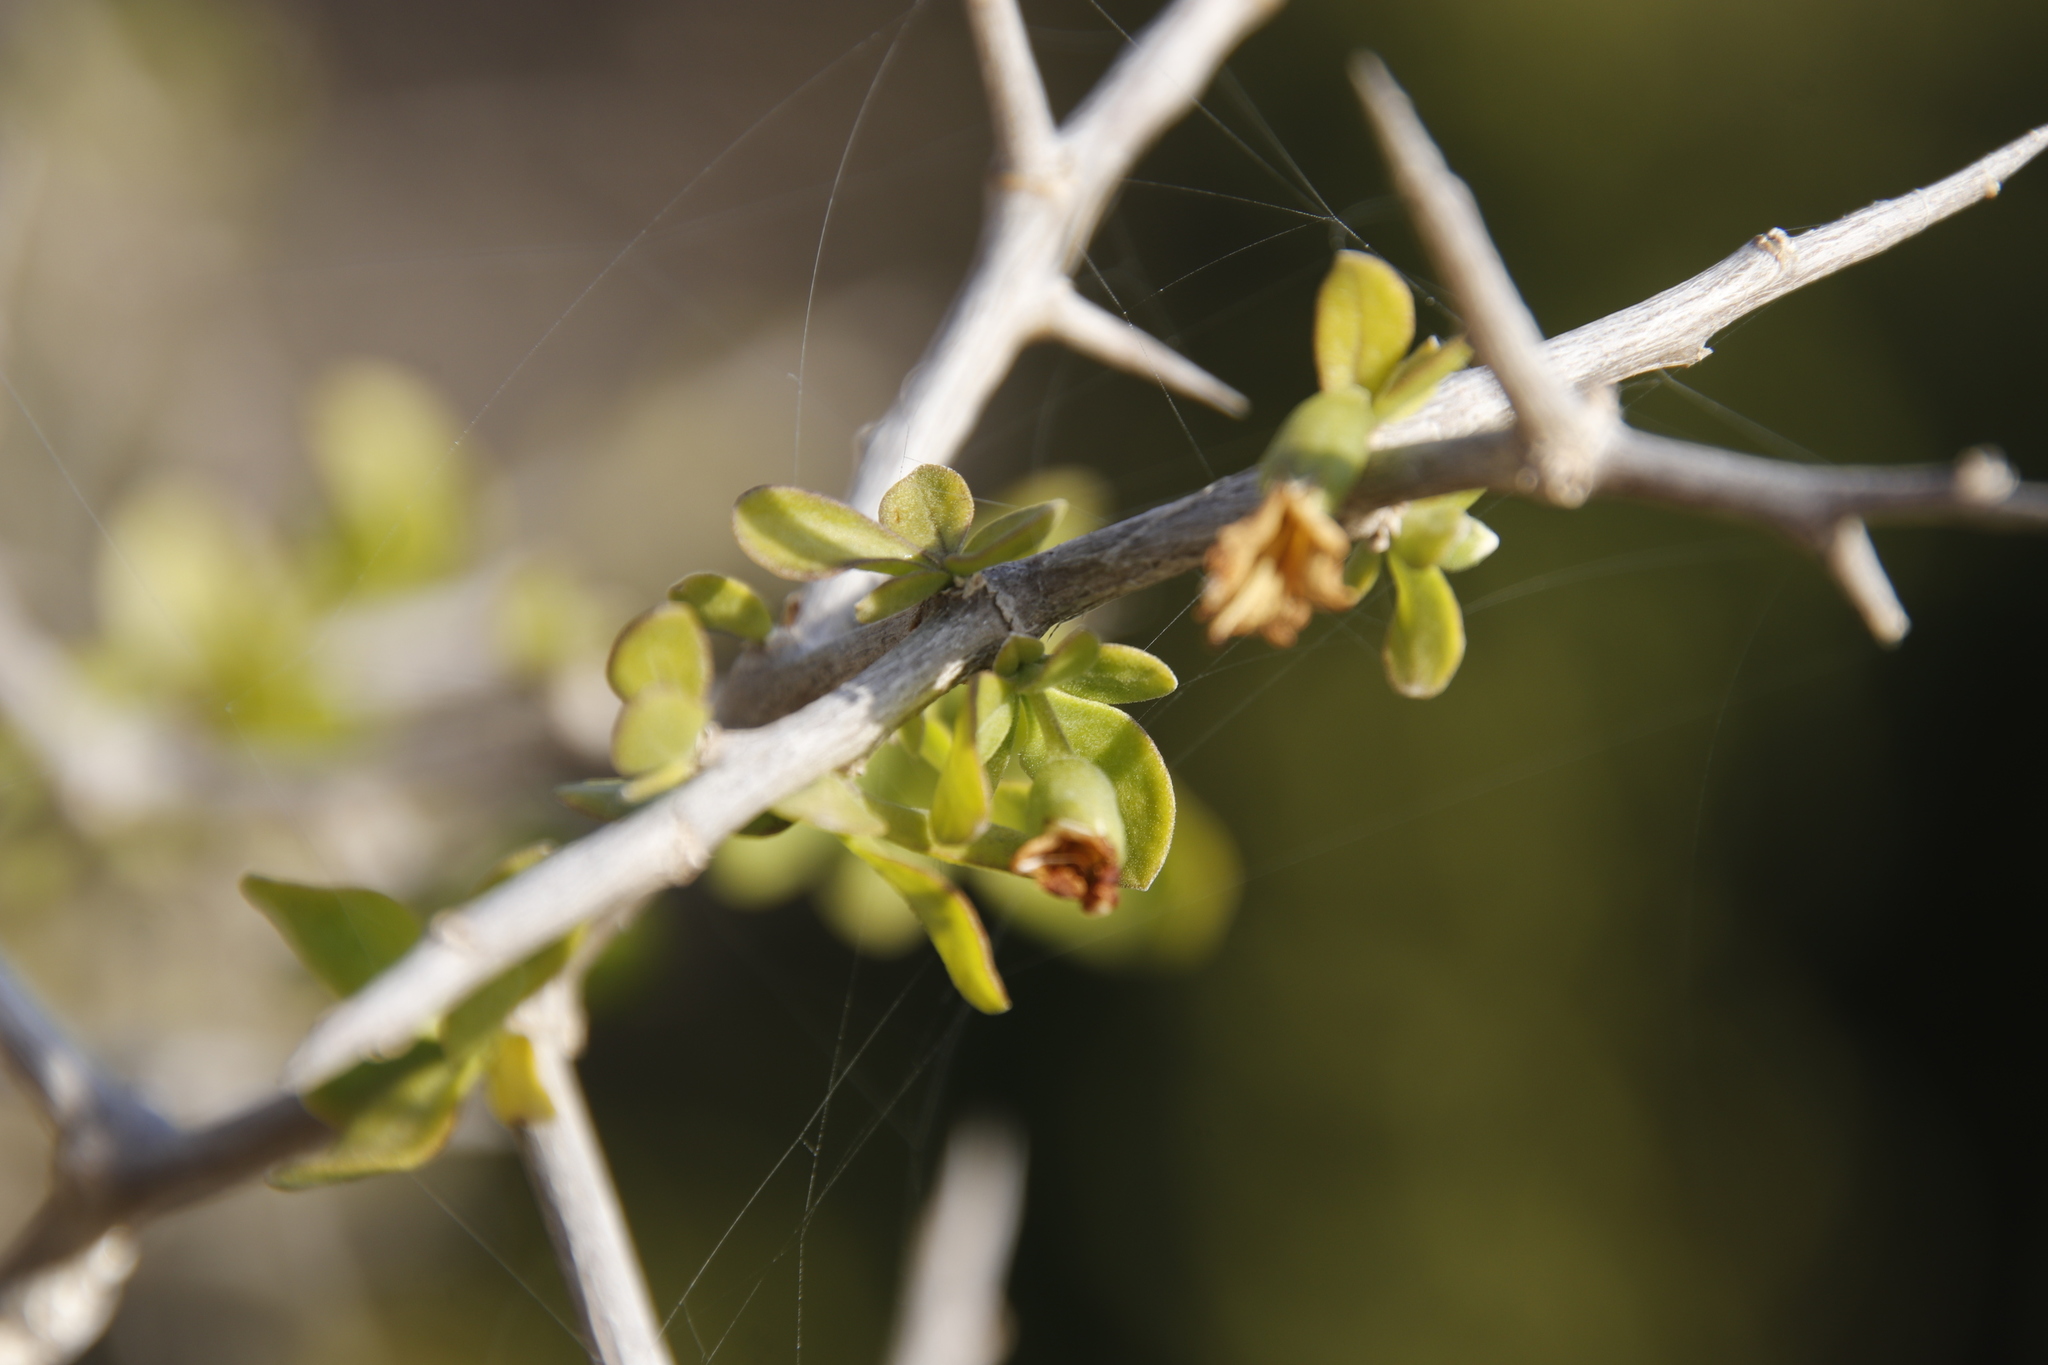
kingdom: Plantae
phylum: Tracheophyta
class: Magnoliopsida
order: Solanales
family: Solanaceae
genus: Lycium
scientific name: Lycium ferocissimum
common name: African boxthorn
